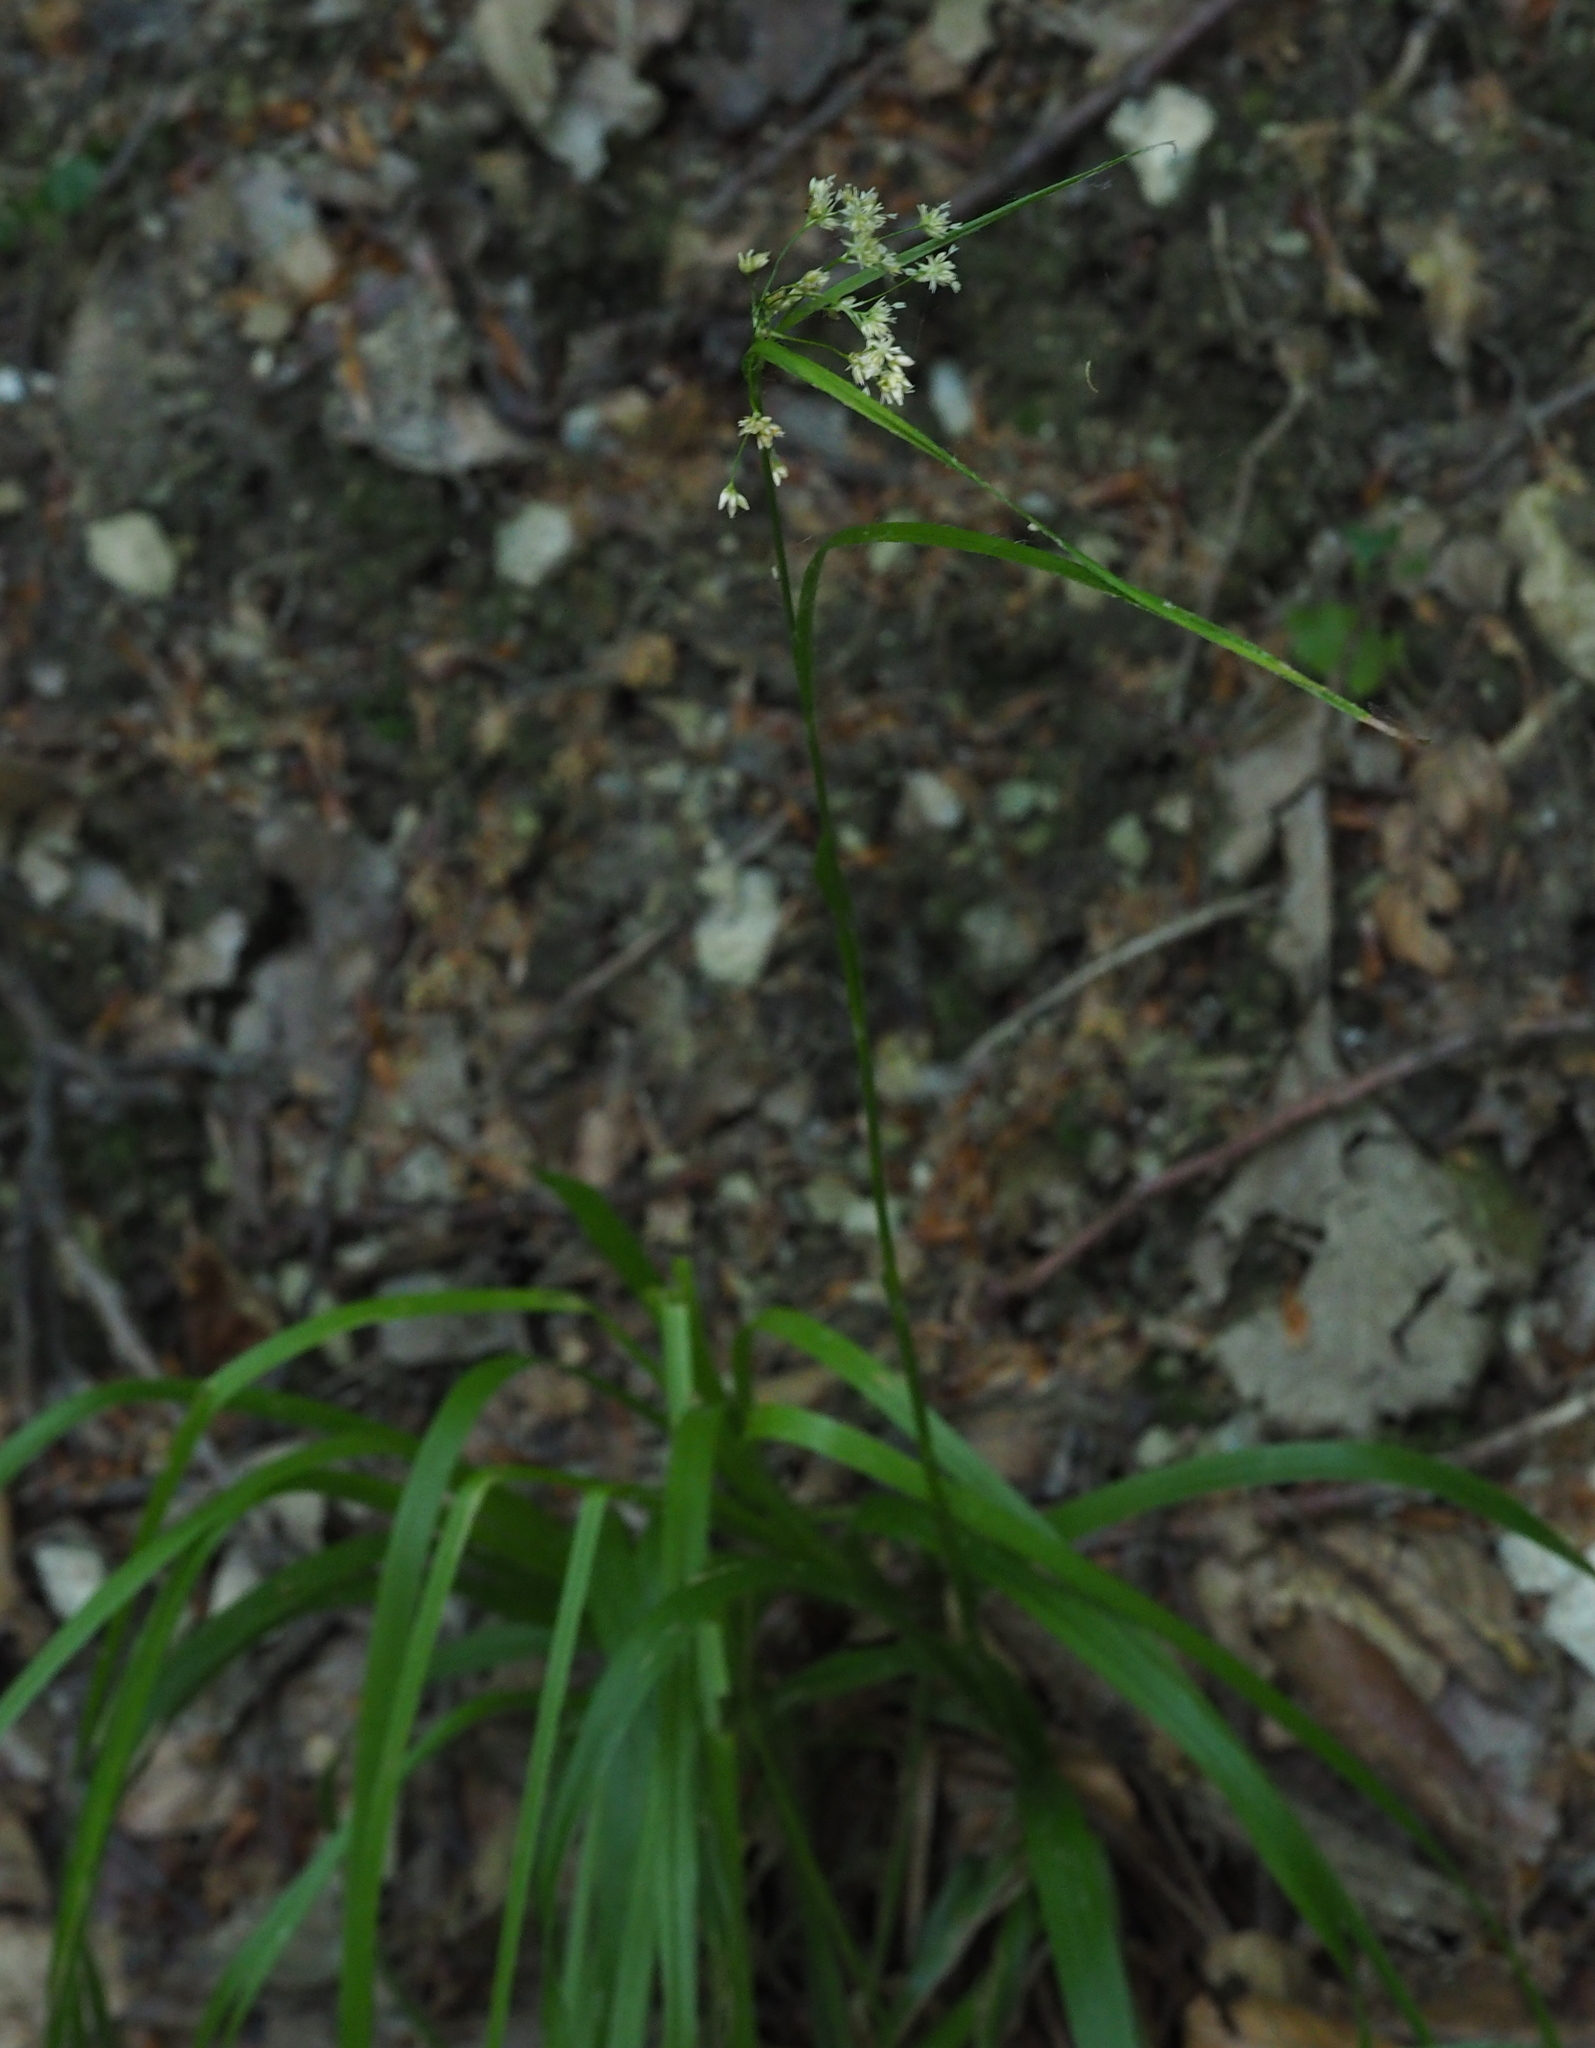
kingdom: Plantae
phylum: Tracheophyta
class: Liliopsida
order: Poales
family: Juncaceae
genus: Luzula
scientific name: Luzula luzuloides
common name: White wood-rush
